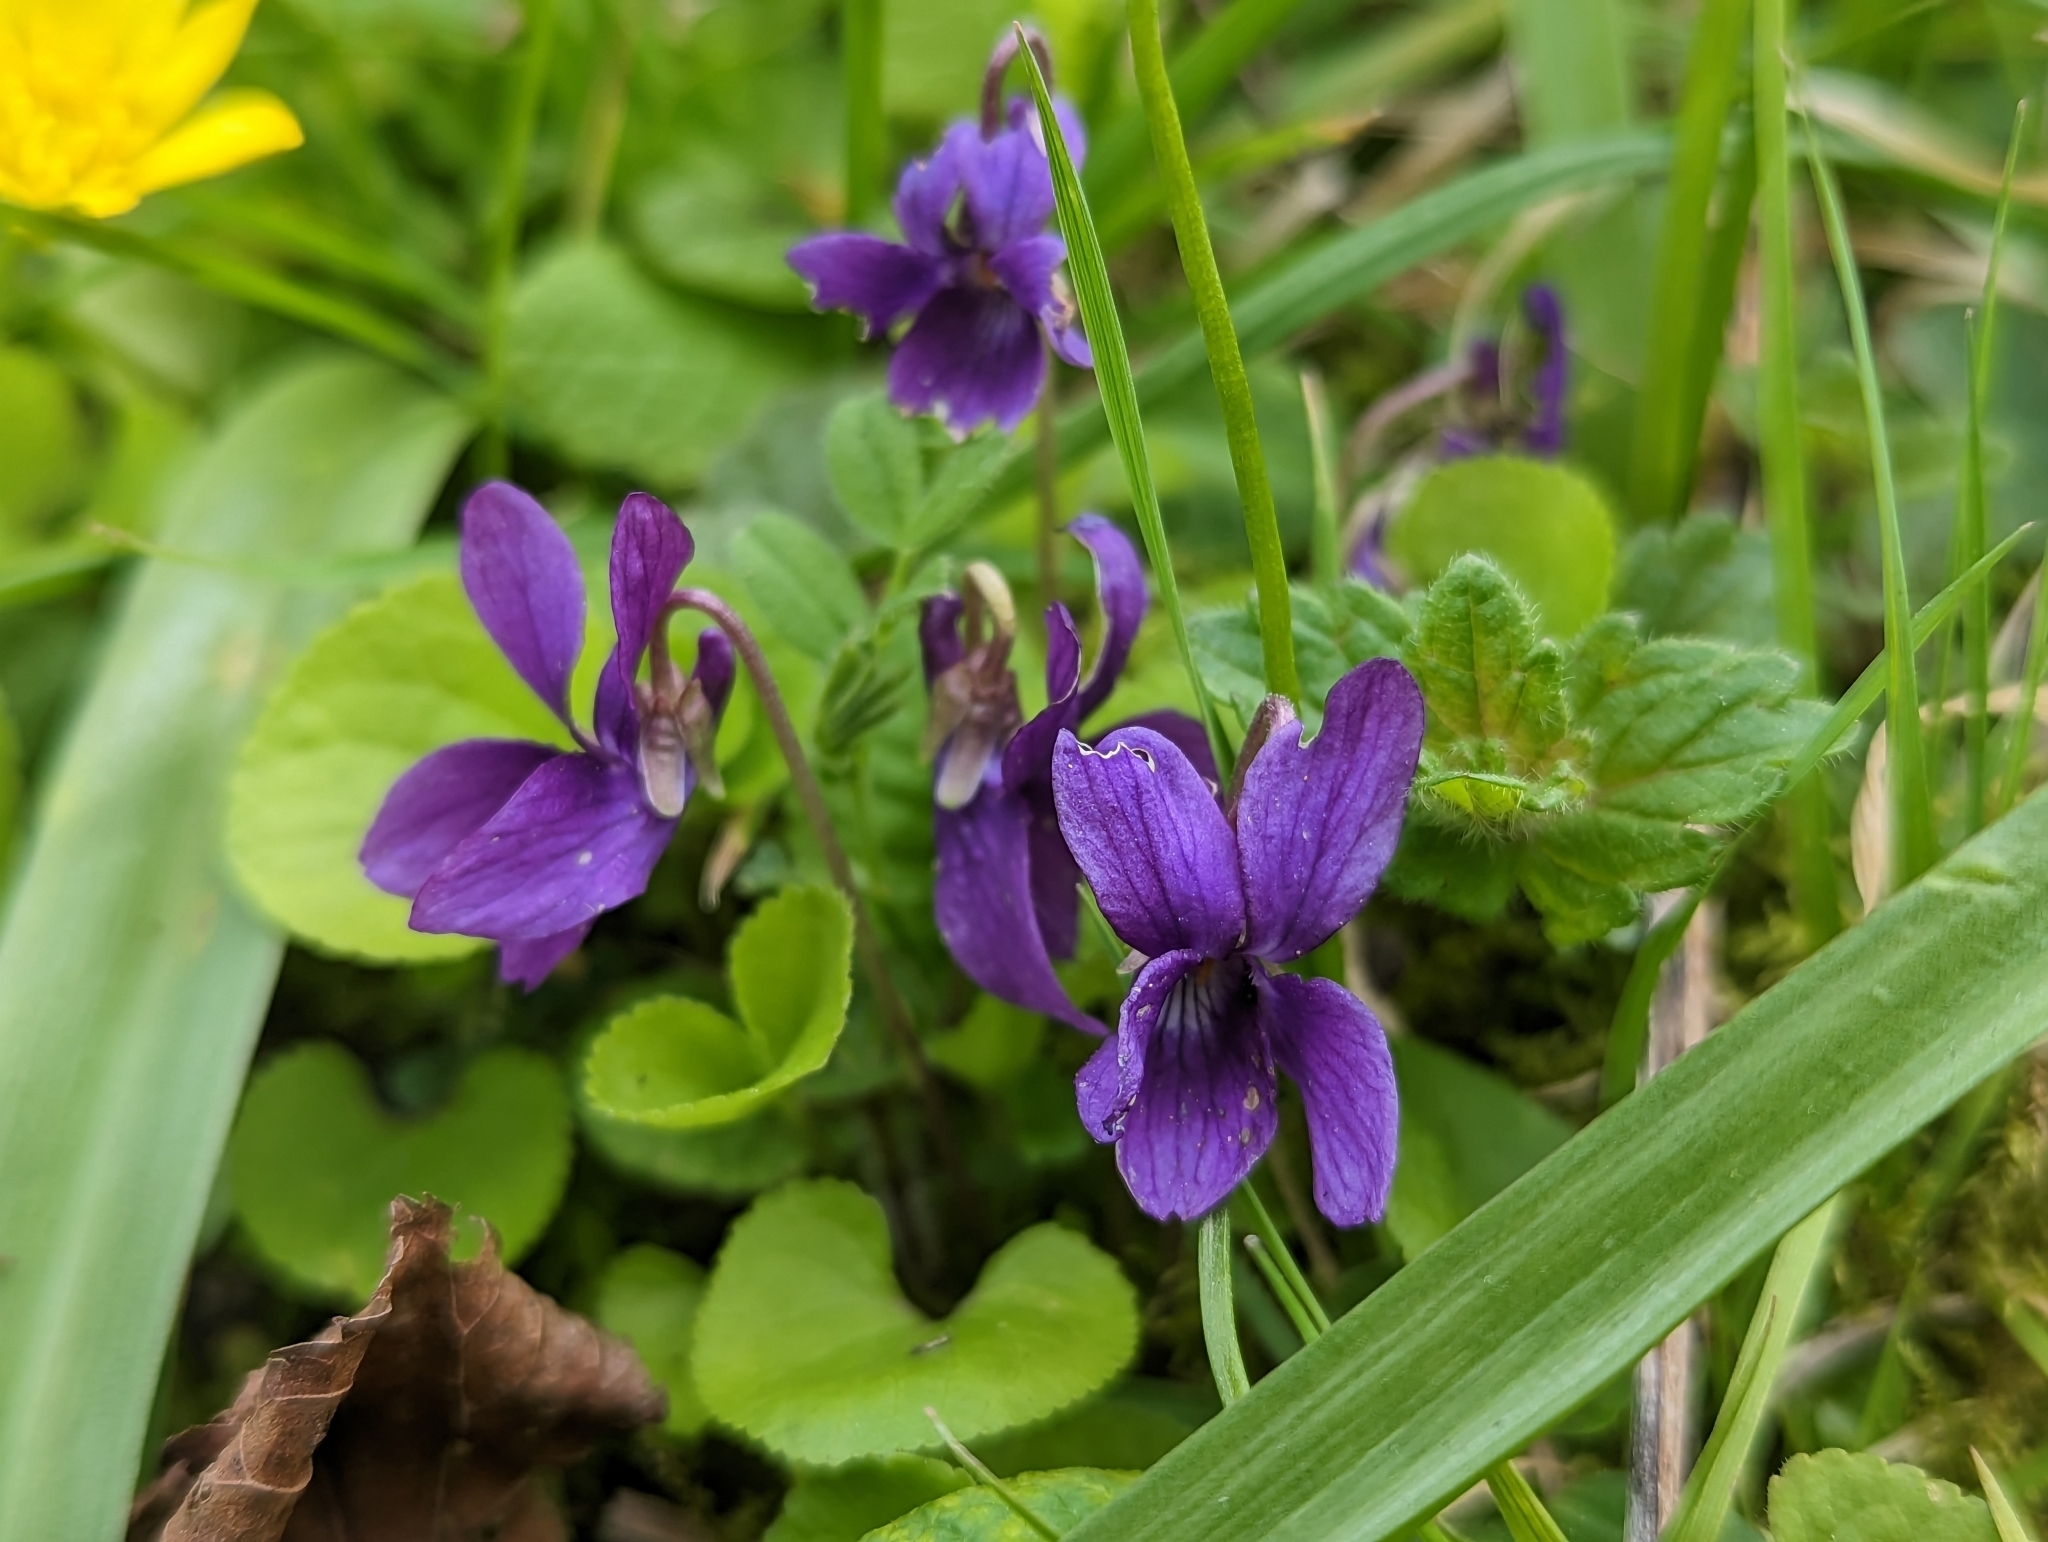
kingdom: Plantae
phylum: Tracheophyta
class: Magnoliopsida
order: Malpighiales
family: Violaceae
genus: Viola
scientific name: Viola odorata
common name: Sweet violet
